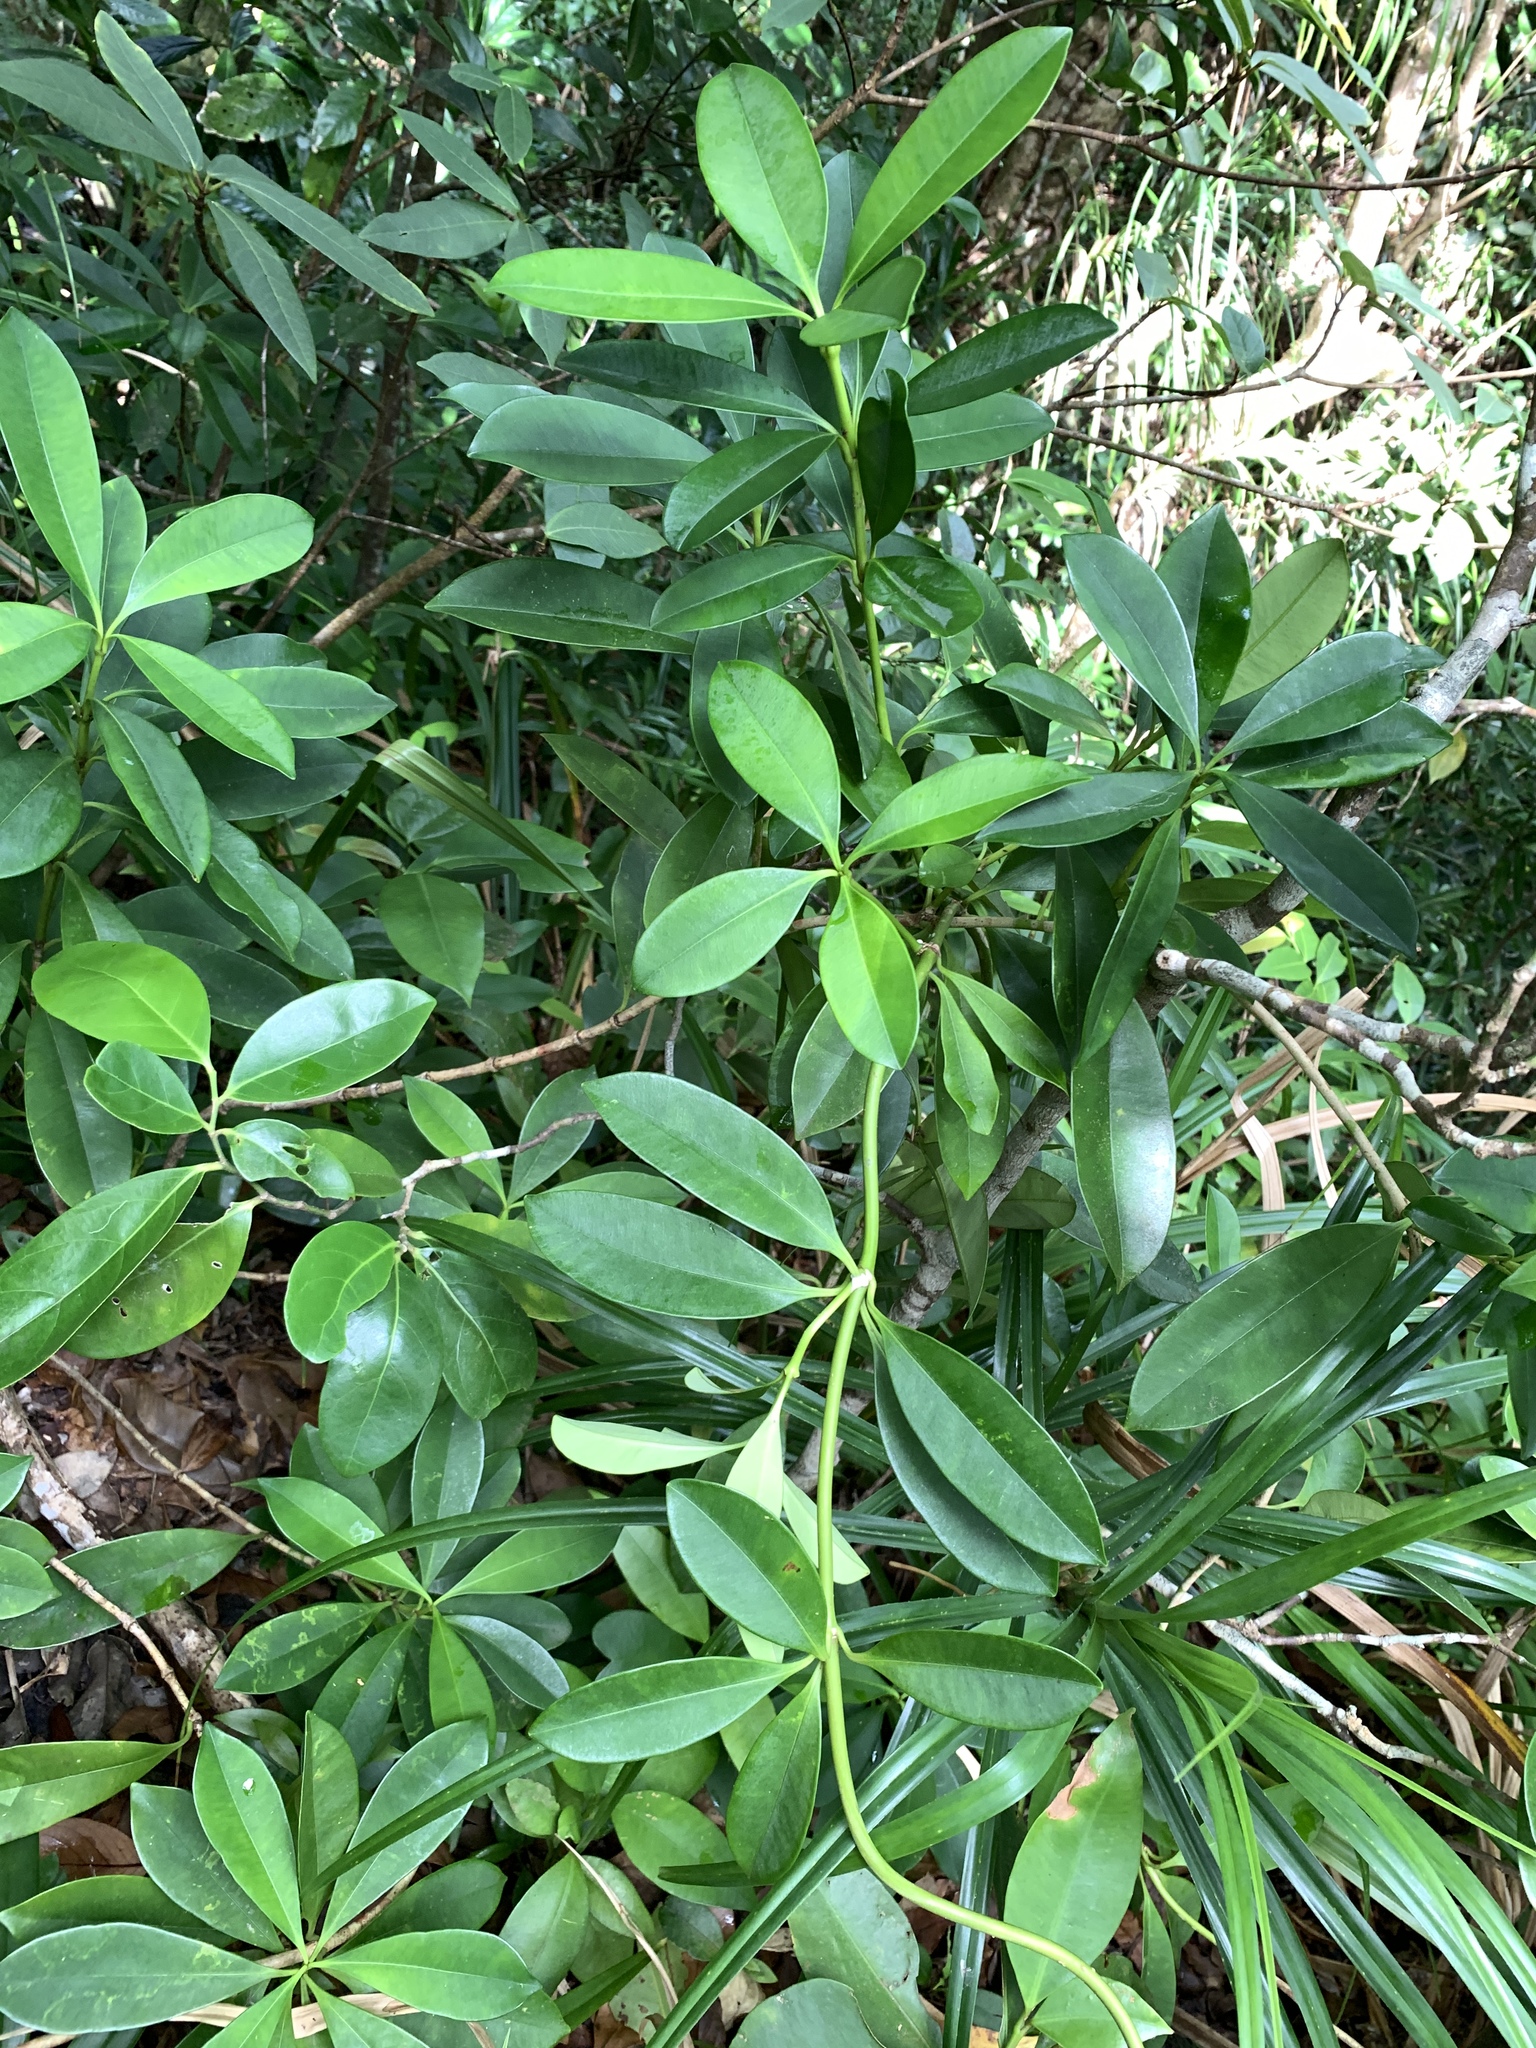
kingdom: Plantae
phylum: Tracheophyta
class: Magnoliopsida
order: Gentianales
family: Apocynaceae
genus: Alyxia
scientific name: Alyxia monticola
